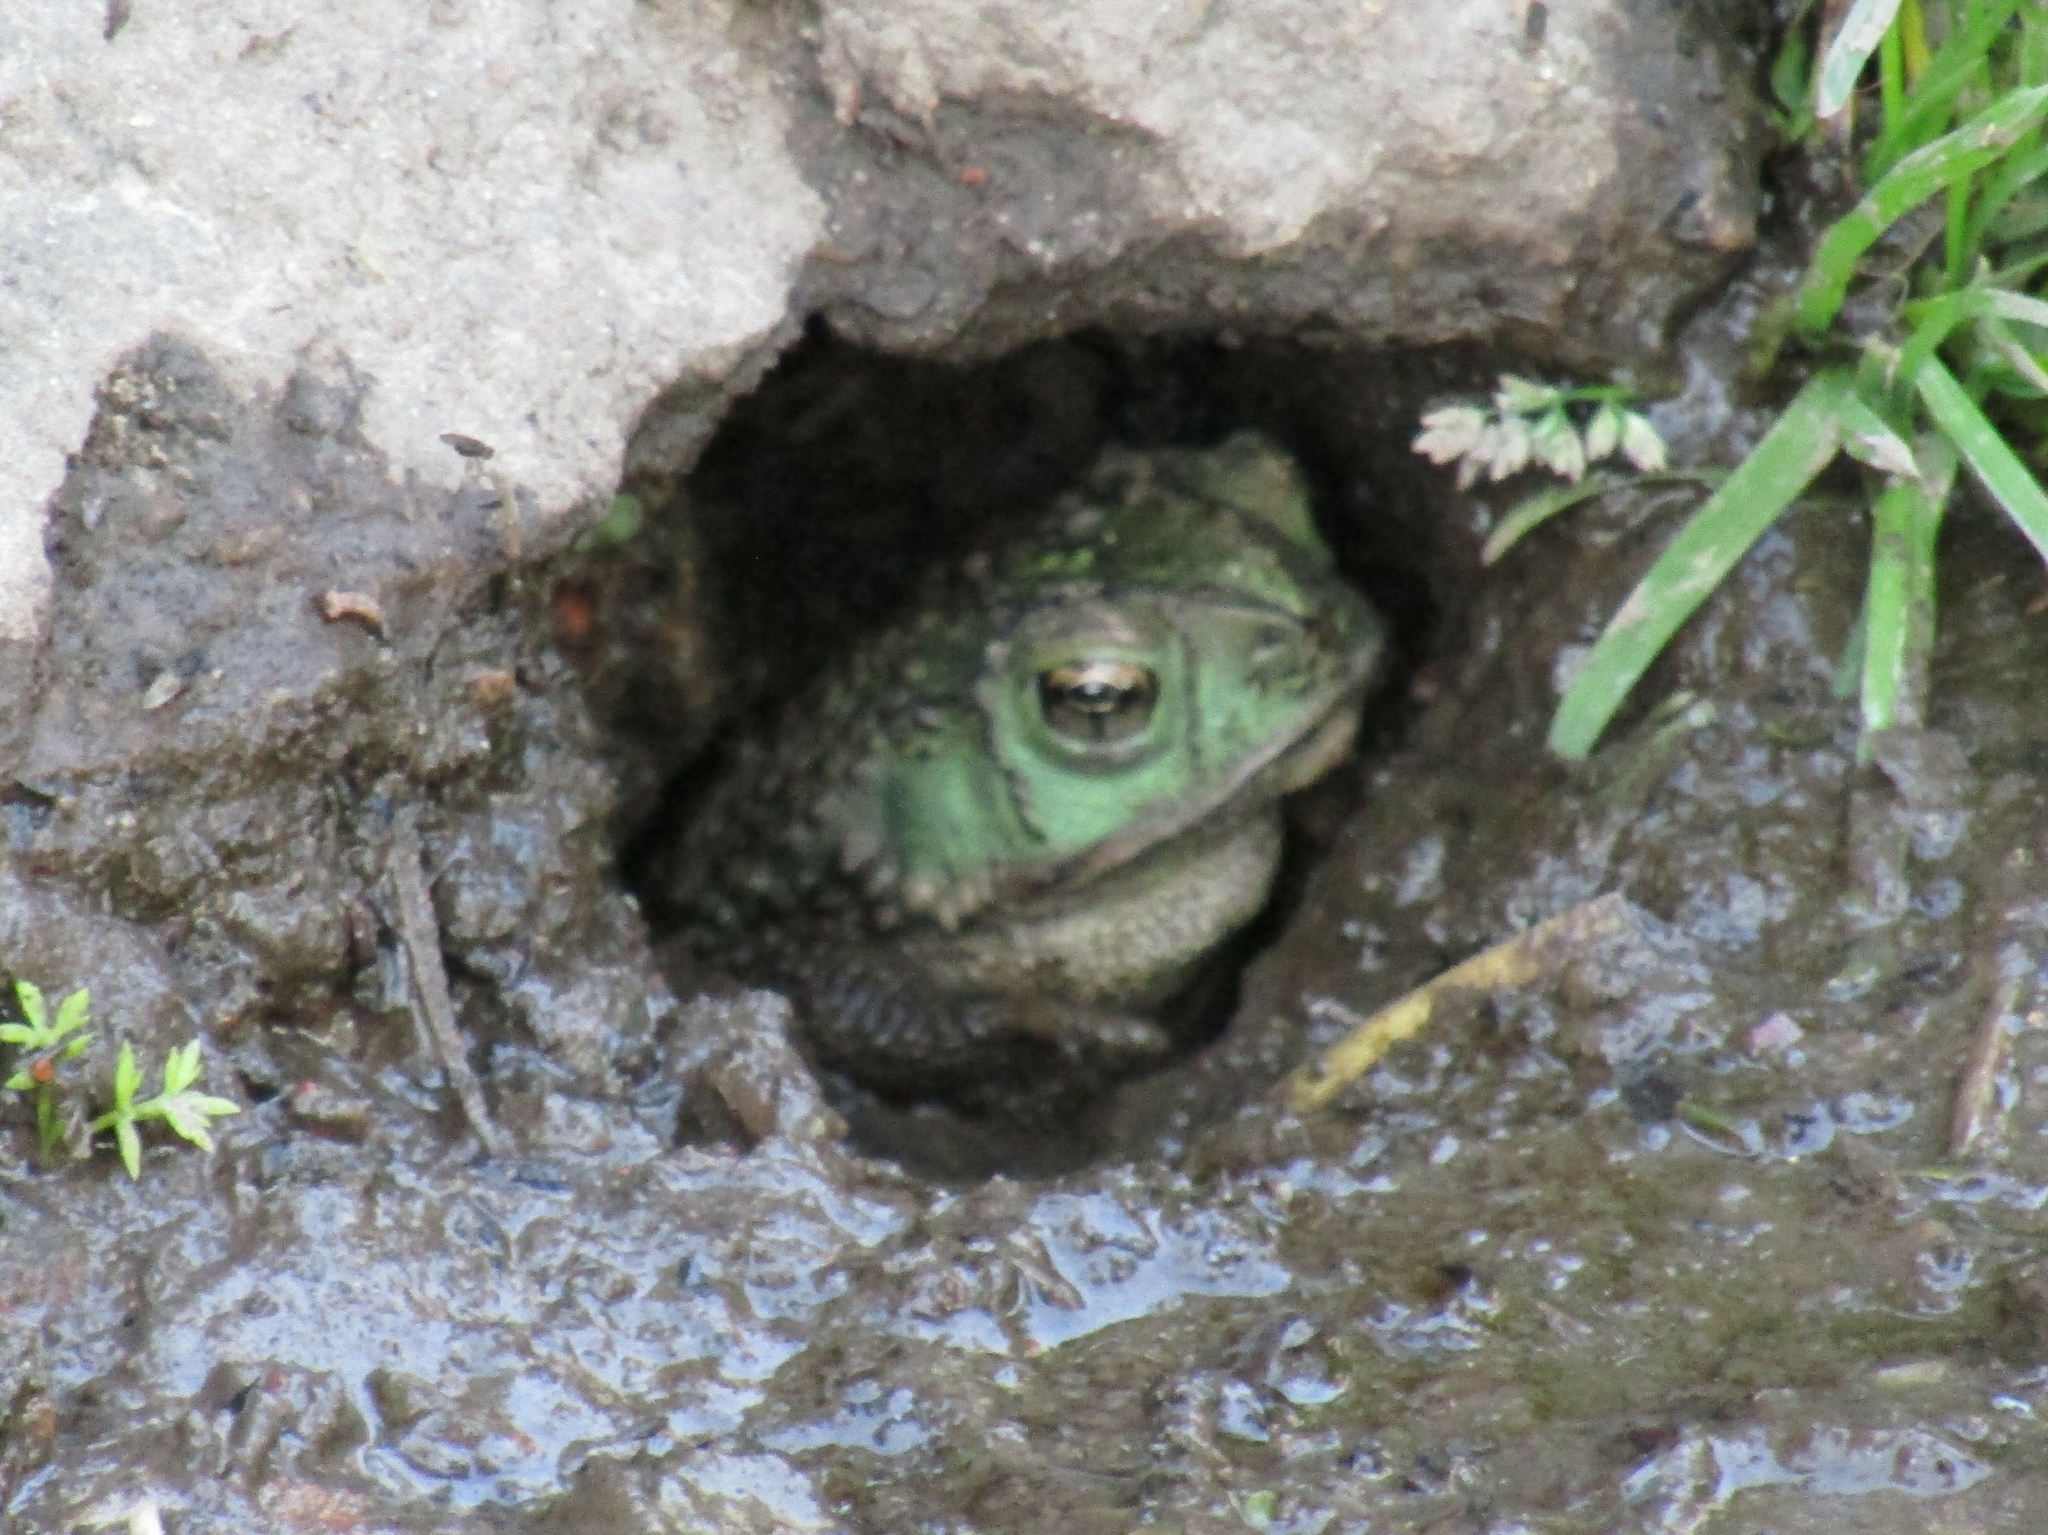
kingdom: Animalia
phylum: Chordata
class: Amphibia
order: Anura
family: Bufonidae
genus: Rhinella
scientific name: Rhinella dorbignyi
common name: D´orbigny’s toad
